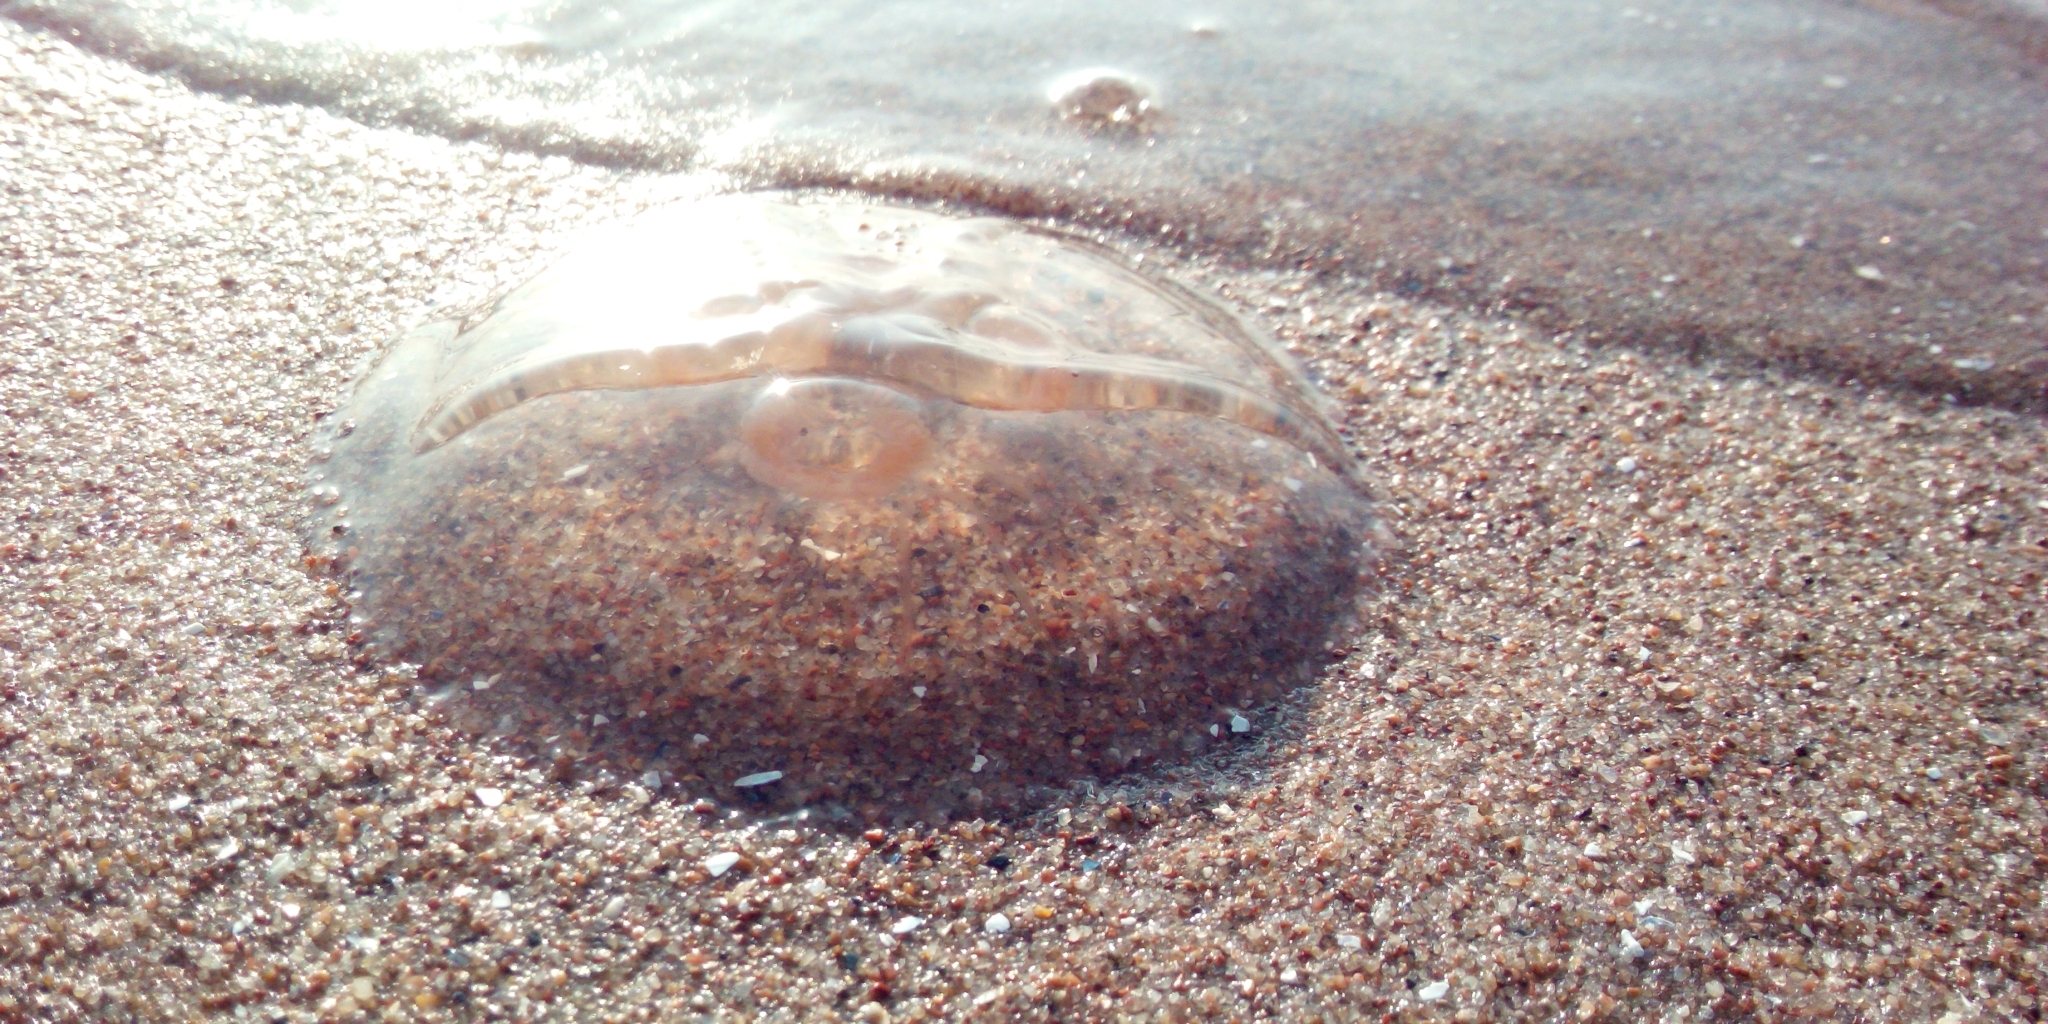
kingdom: Animalia
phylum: Cnidaria
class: Scyphozoa
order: Semaeostomeae
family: Ulmaridae
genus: Aurelia
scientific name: Aurelia aurita
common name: Moon jellyfish
